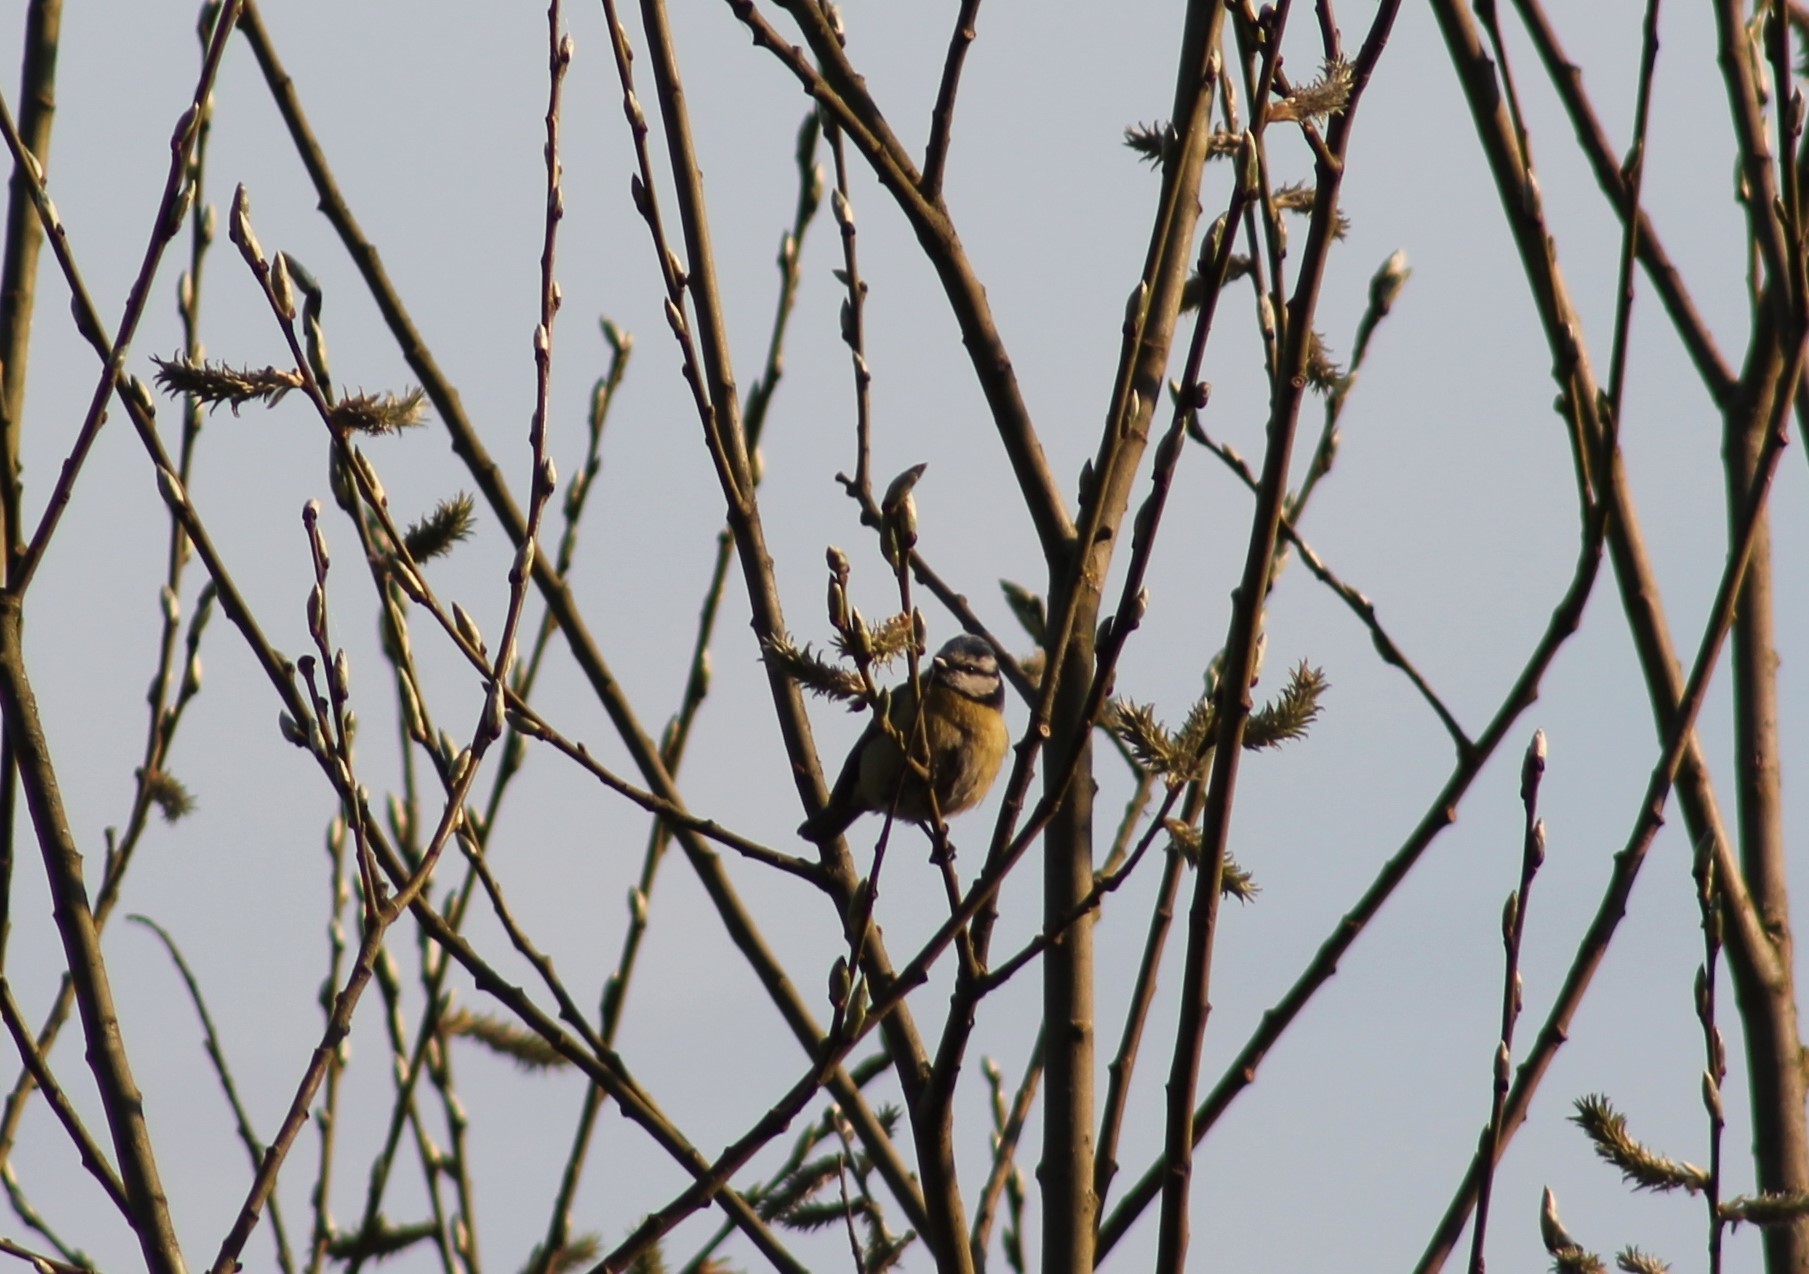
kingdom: Animalia
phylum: Chordata
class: Aves
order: Passeriformes
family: Paridae
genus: Cyanistes
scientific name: Cyanistes caeruleus
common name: Eurasian blue tit
